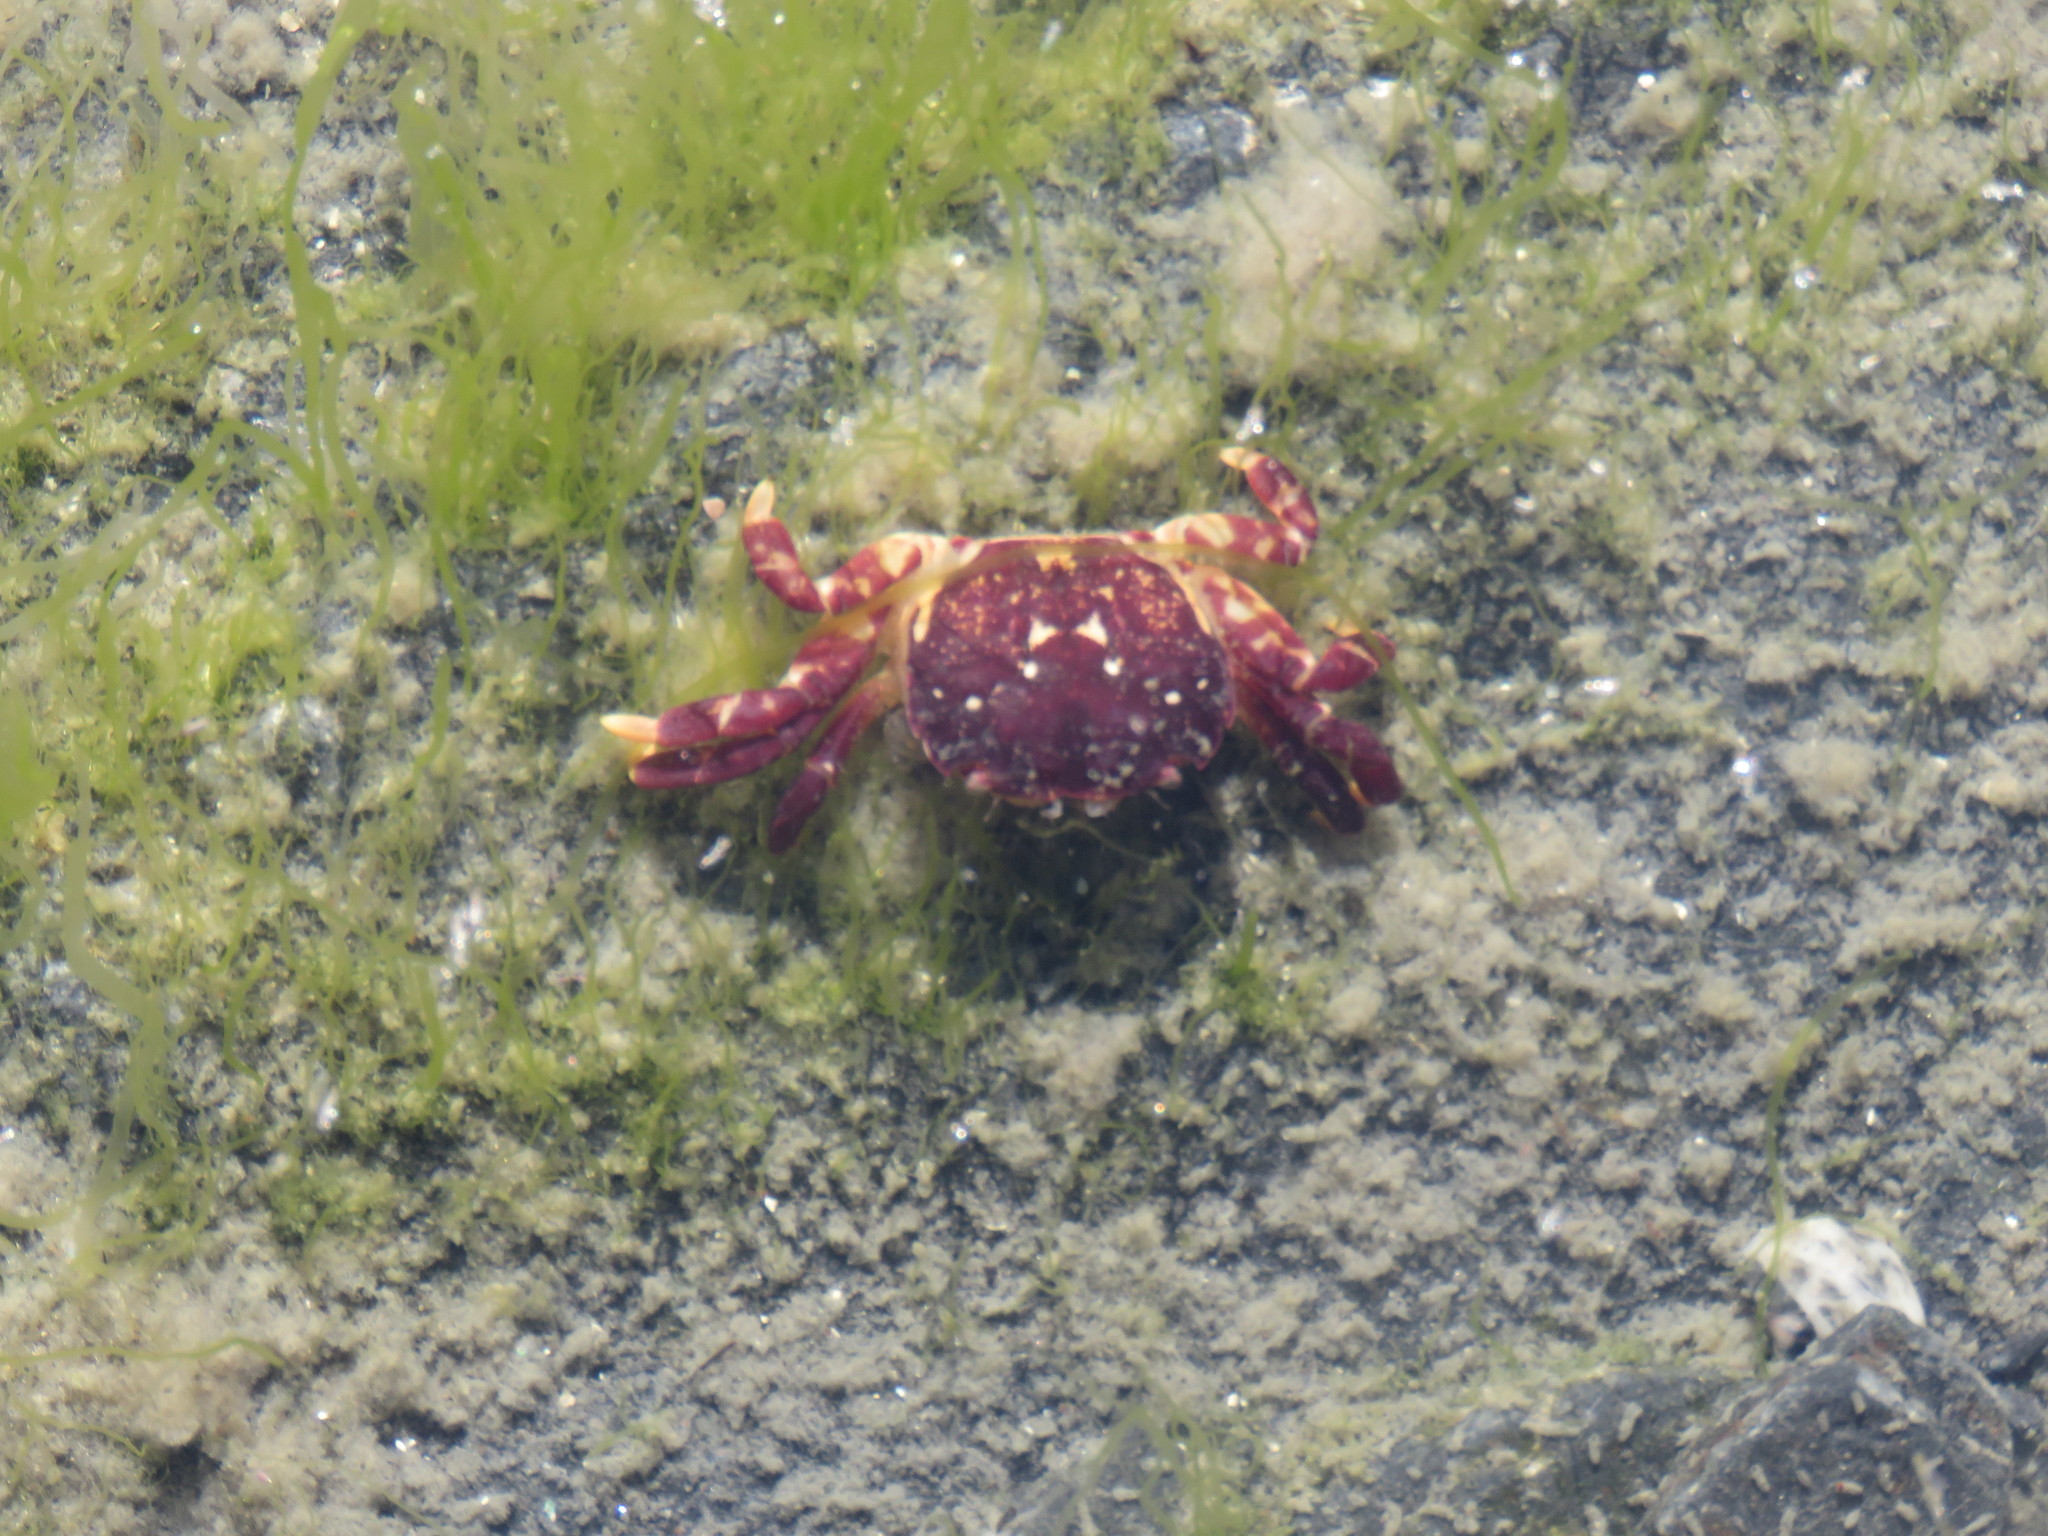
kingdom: Animalia
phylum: Arthropoda
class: Malacostraca
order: Decapoda
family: Varunidae
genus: Hemigrapsus
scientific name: Hemigrapsus nudus
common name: Purple shore crab
